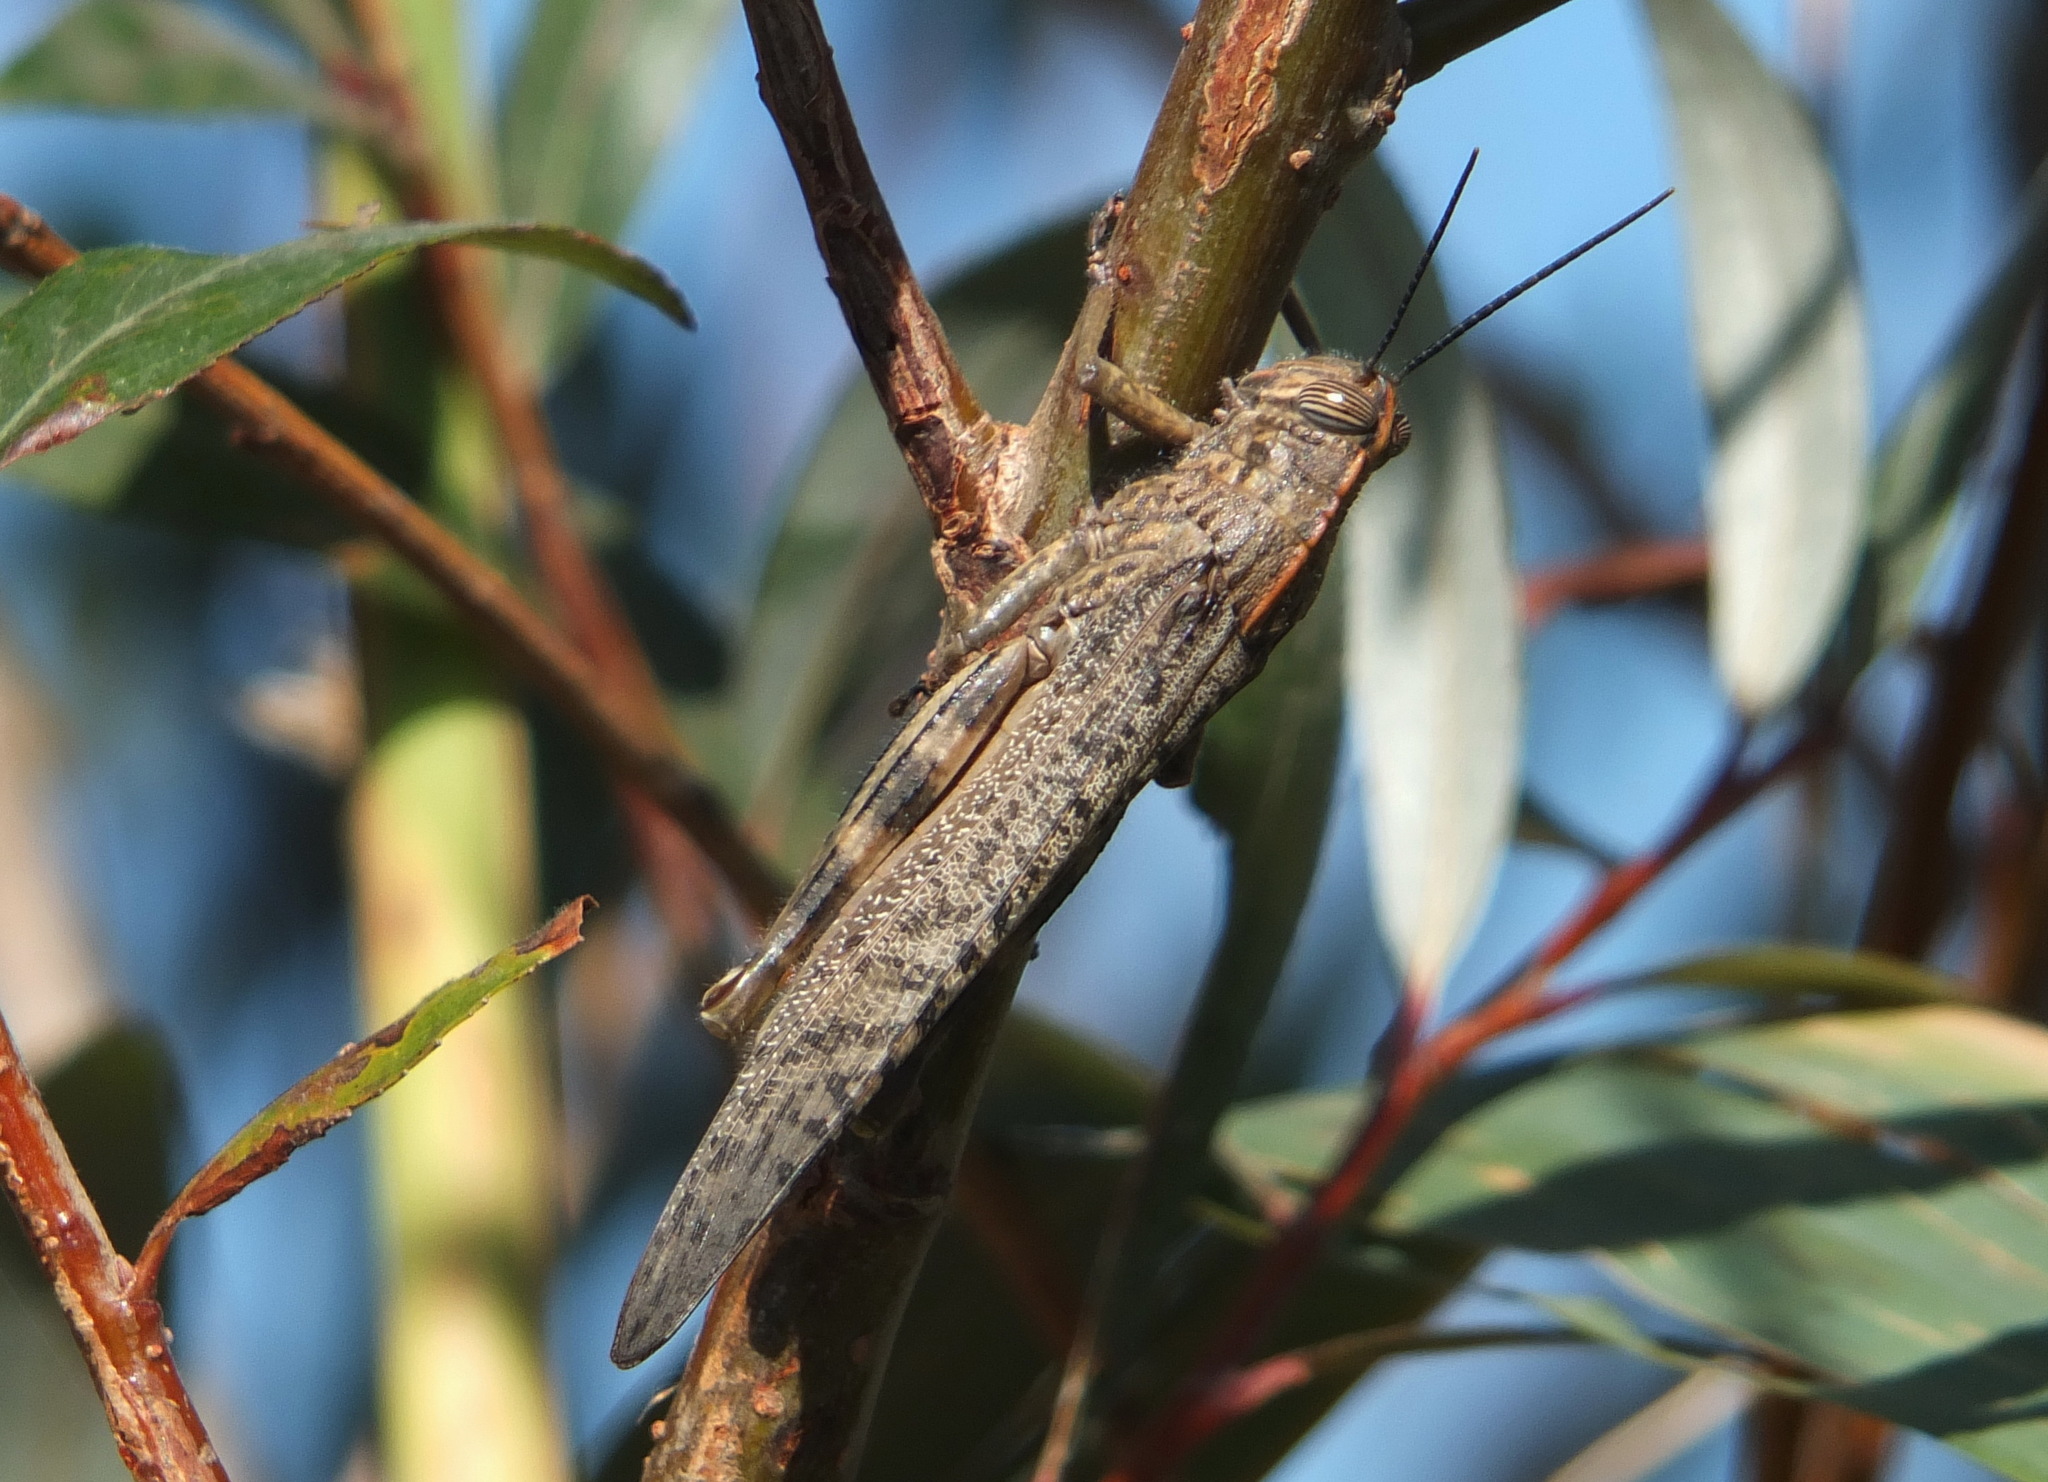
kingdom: Animalia
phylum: Arthropoda
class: Insecta
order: Orthoptera
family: Acrididae
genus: Anacridium
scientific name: Anacridium aegyptium
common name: Egyptian grasshopper
